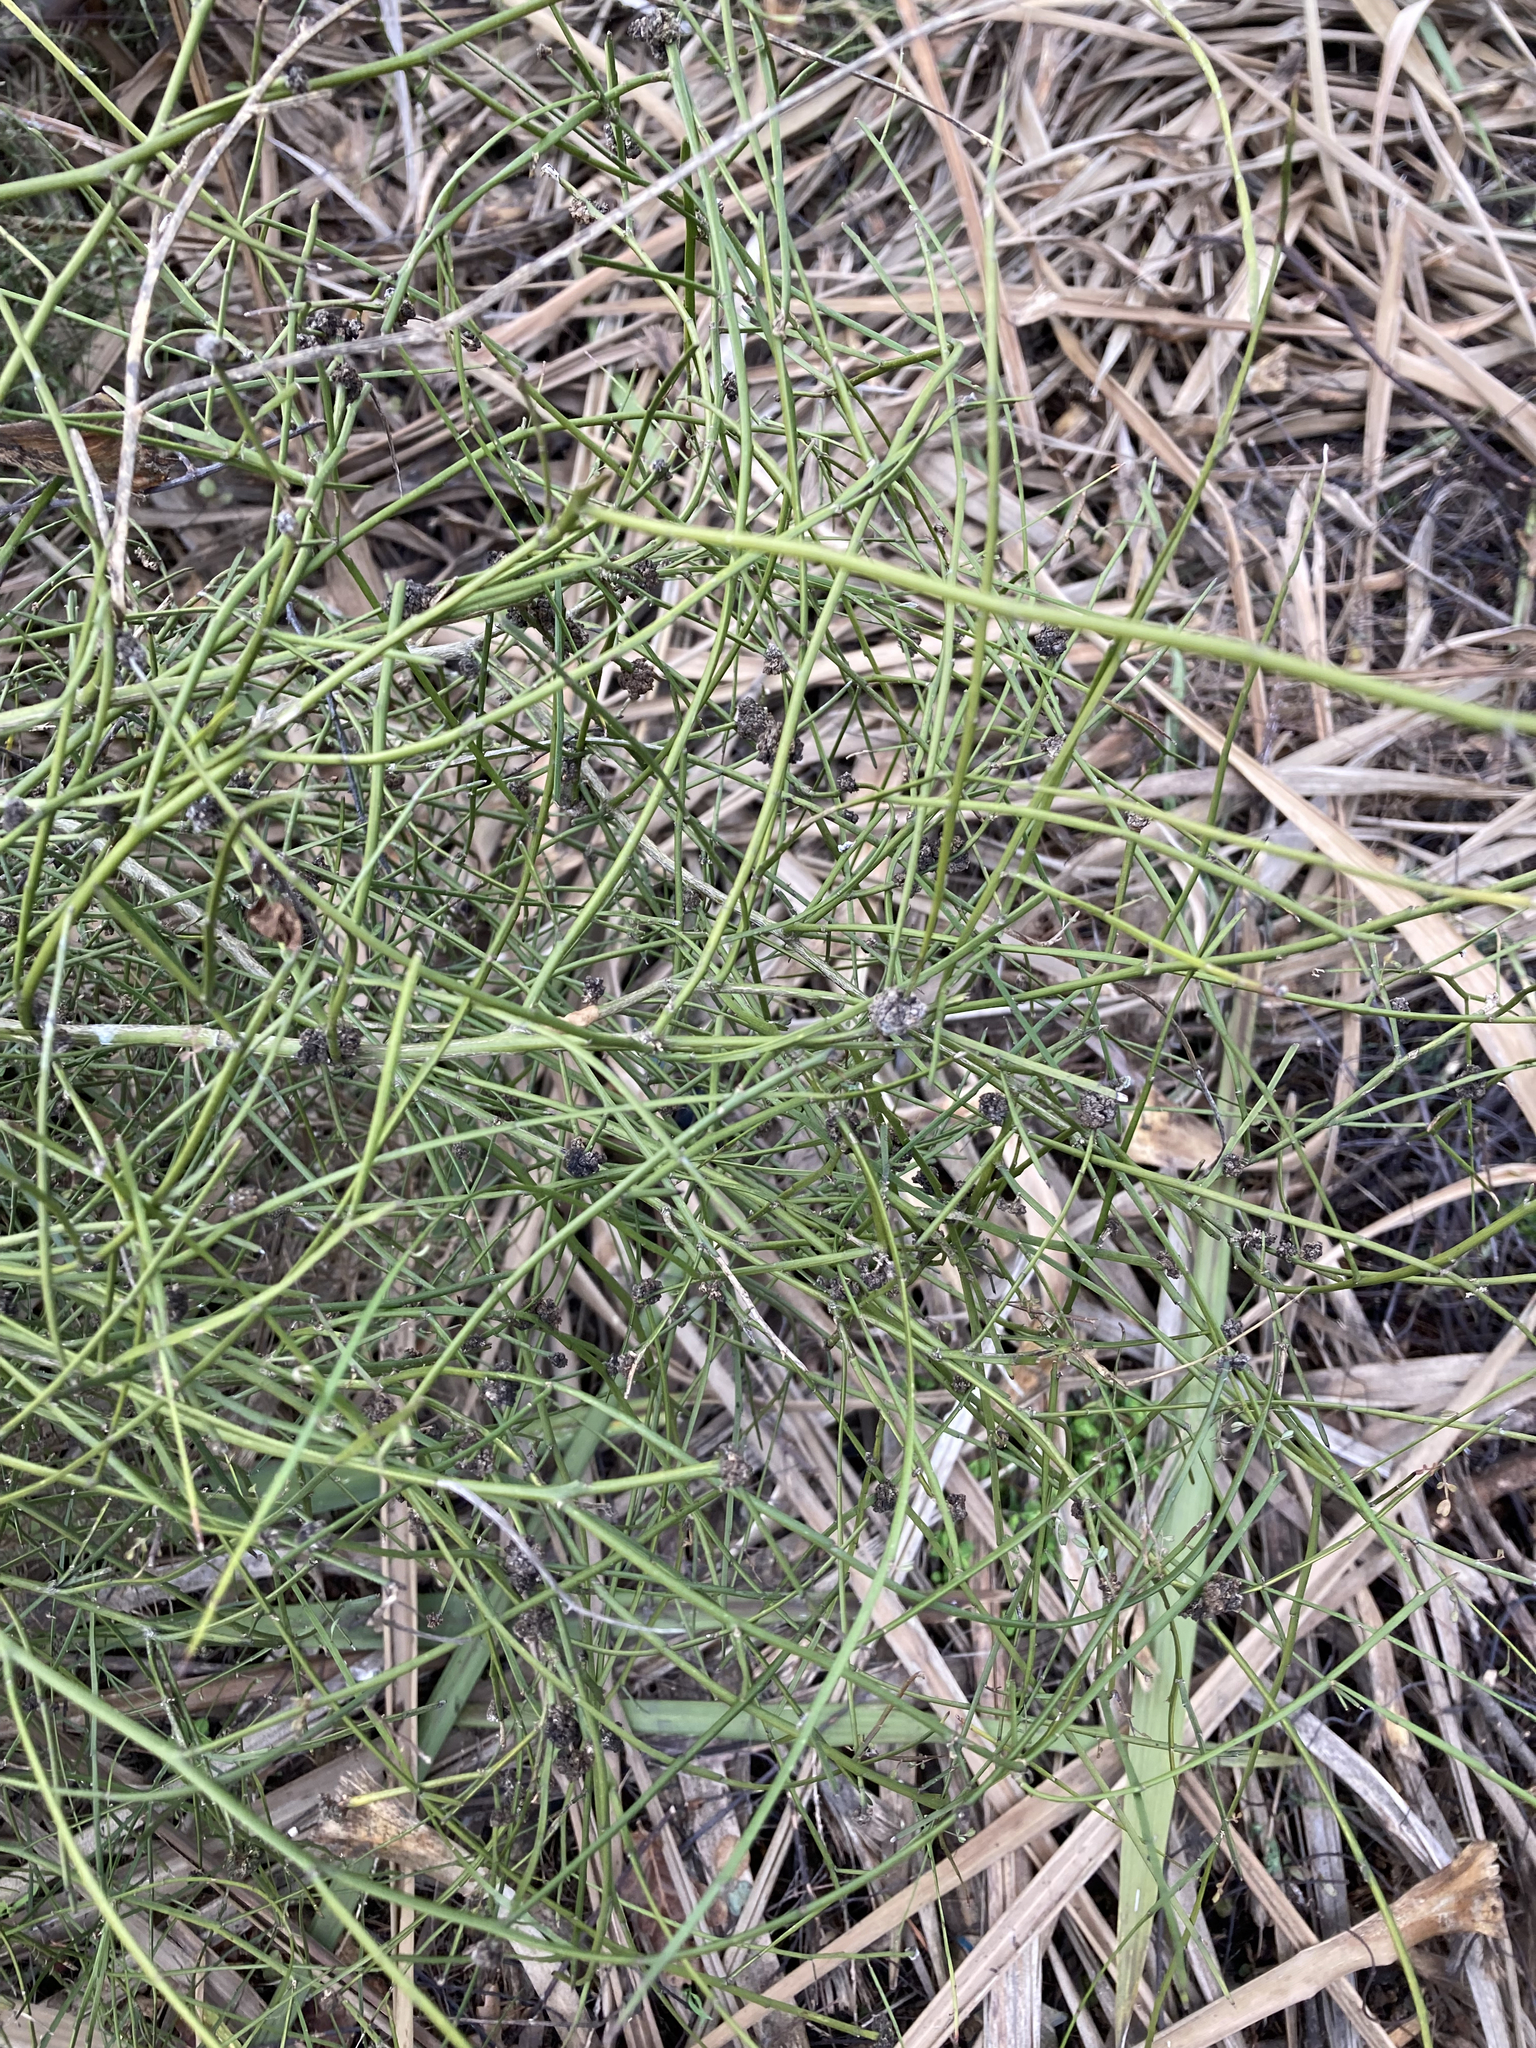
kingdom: Plantae
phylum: Tracheophyta
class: Magnoliopsida
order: Fabales
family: Fabaceae
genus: Carmichaelia
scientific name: Carmichaelia australis
